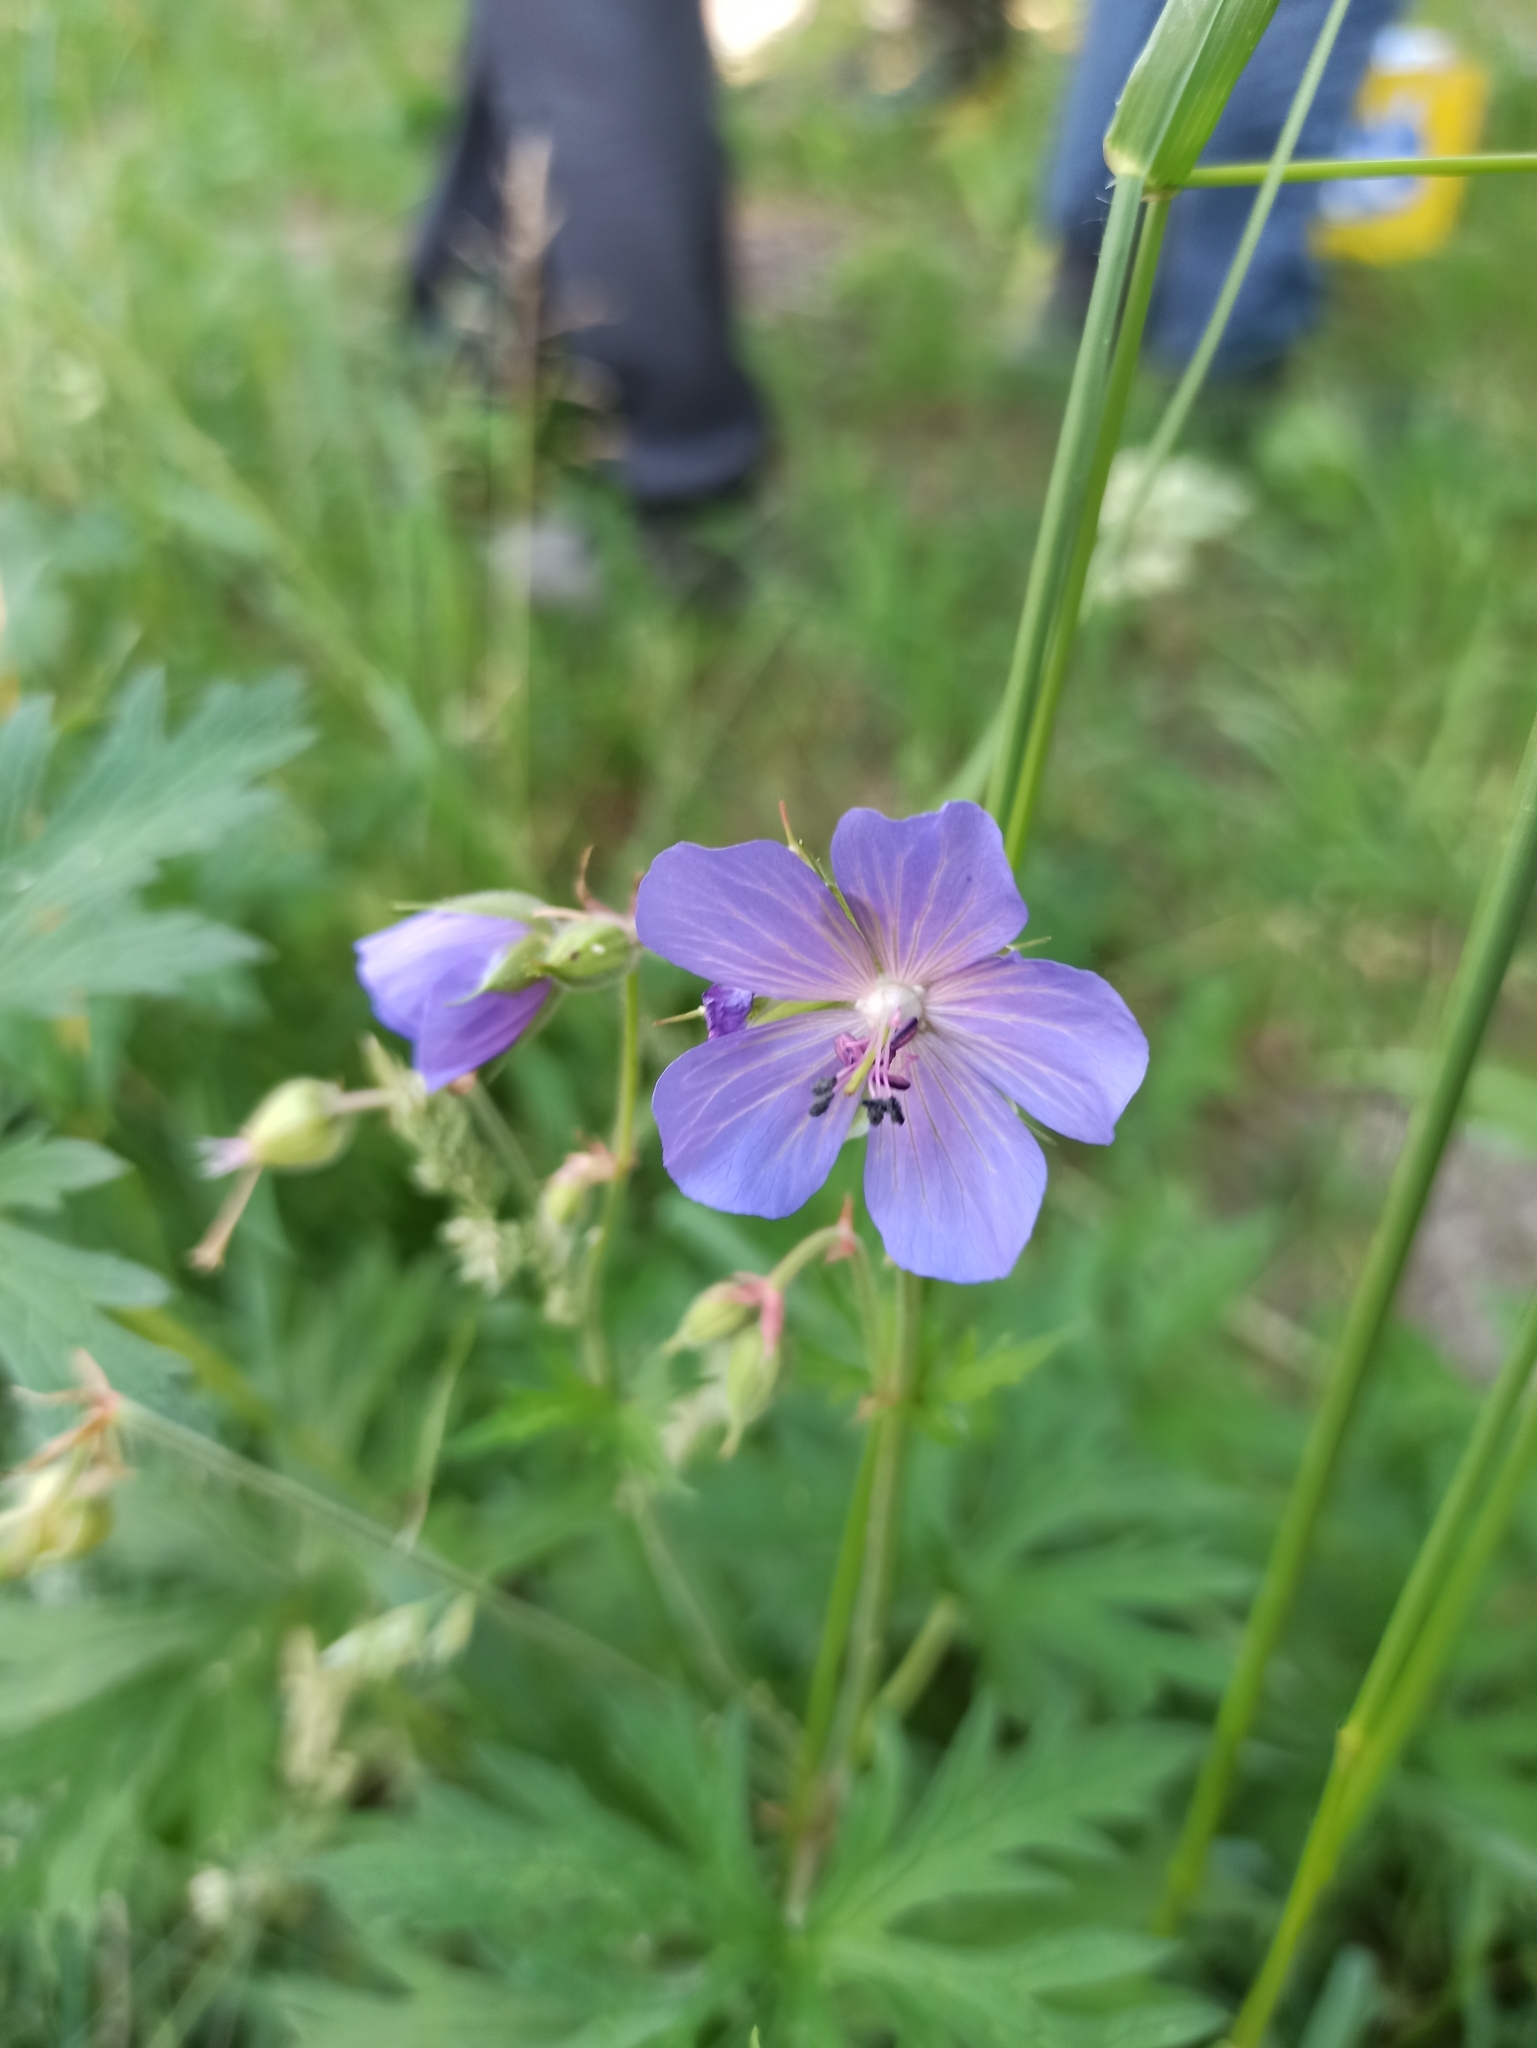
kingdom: Plantae
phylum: Tracheophyta
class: Magnoliopsida
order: Geraniales
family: Geraniaceae
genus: Geranium
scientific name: Geranium pratense
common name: Meadow crane's-bill
